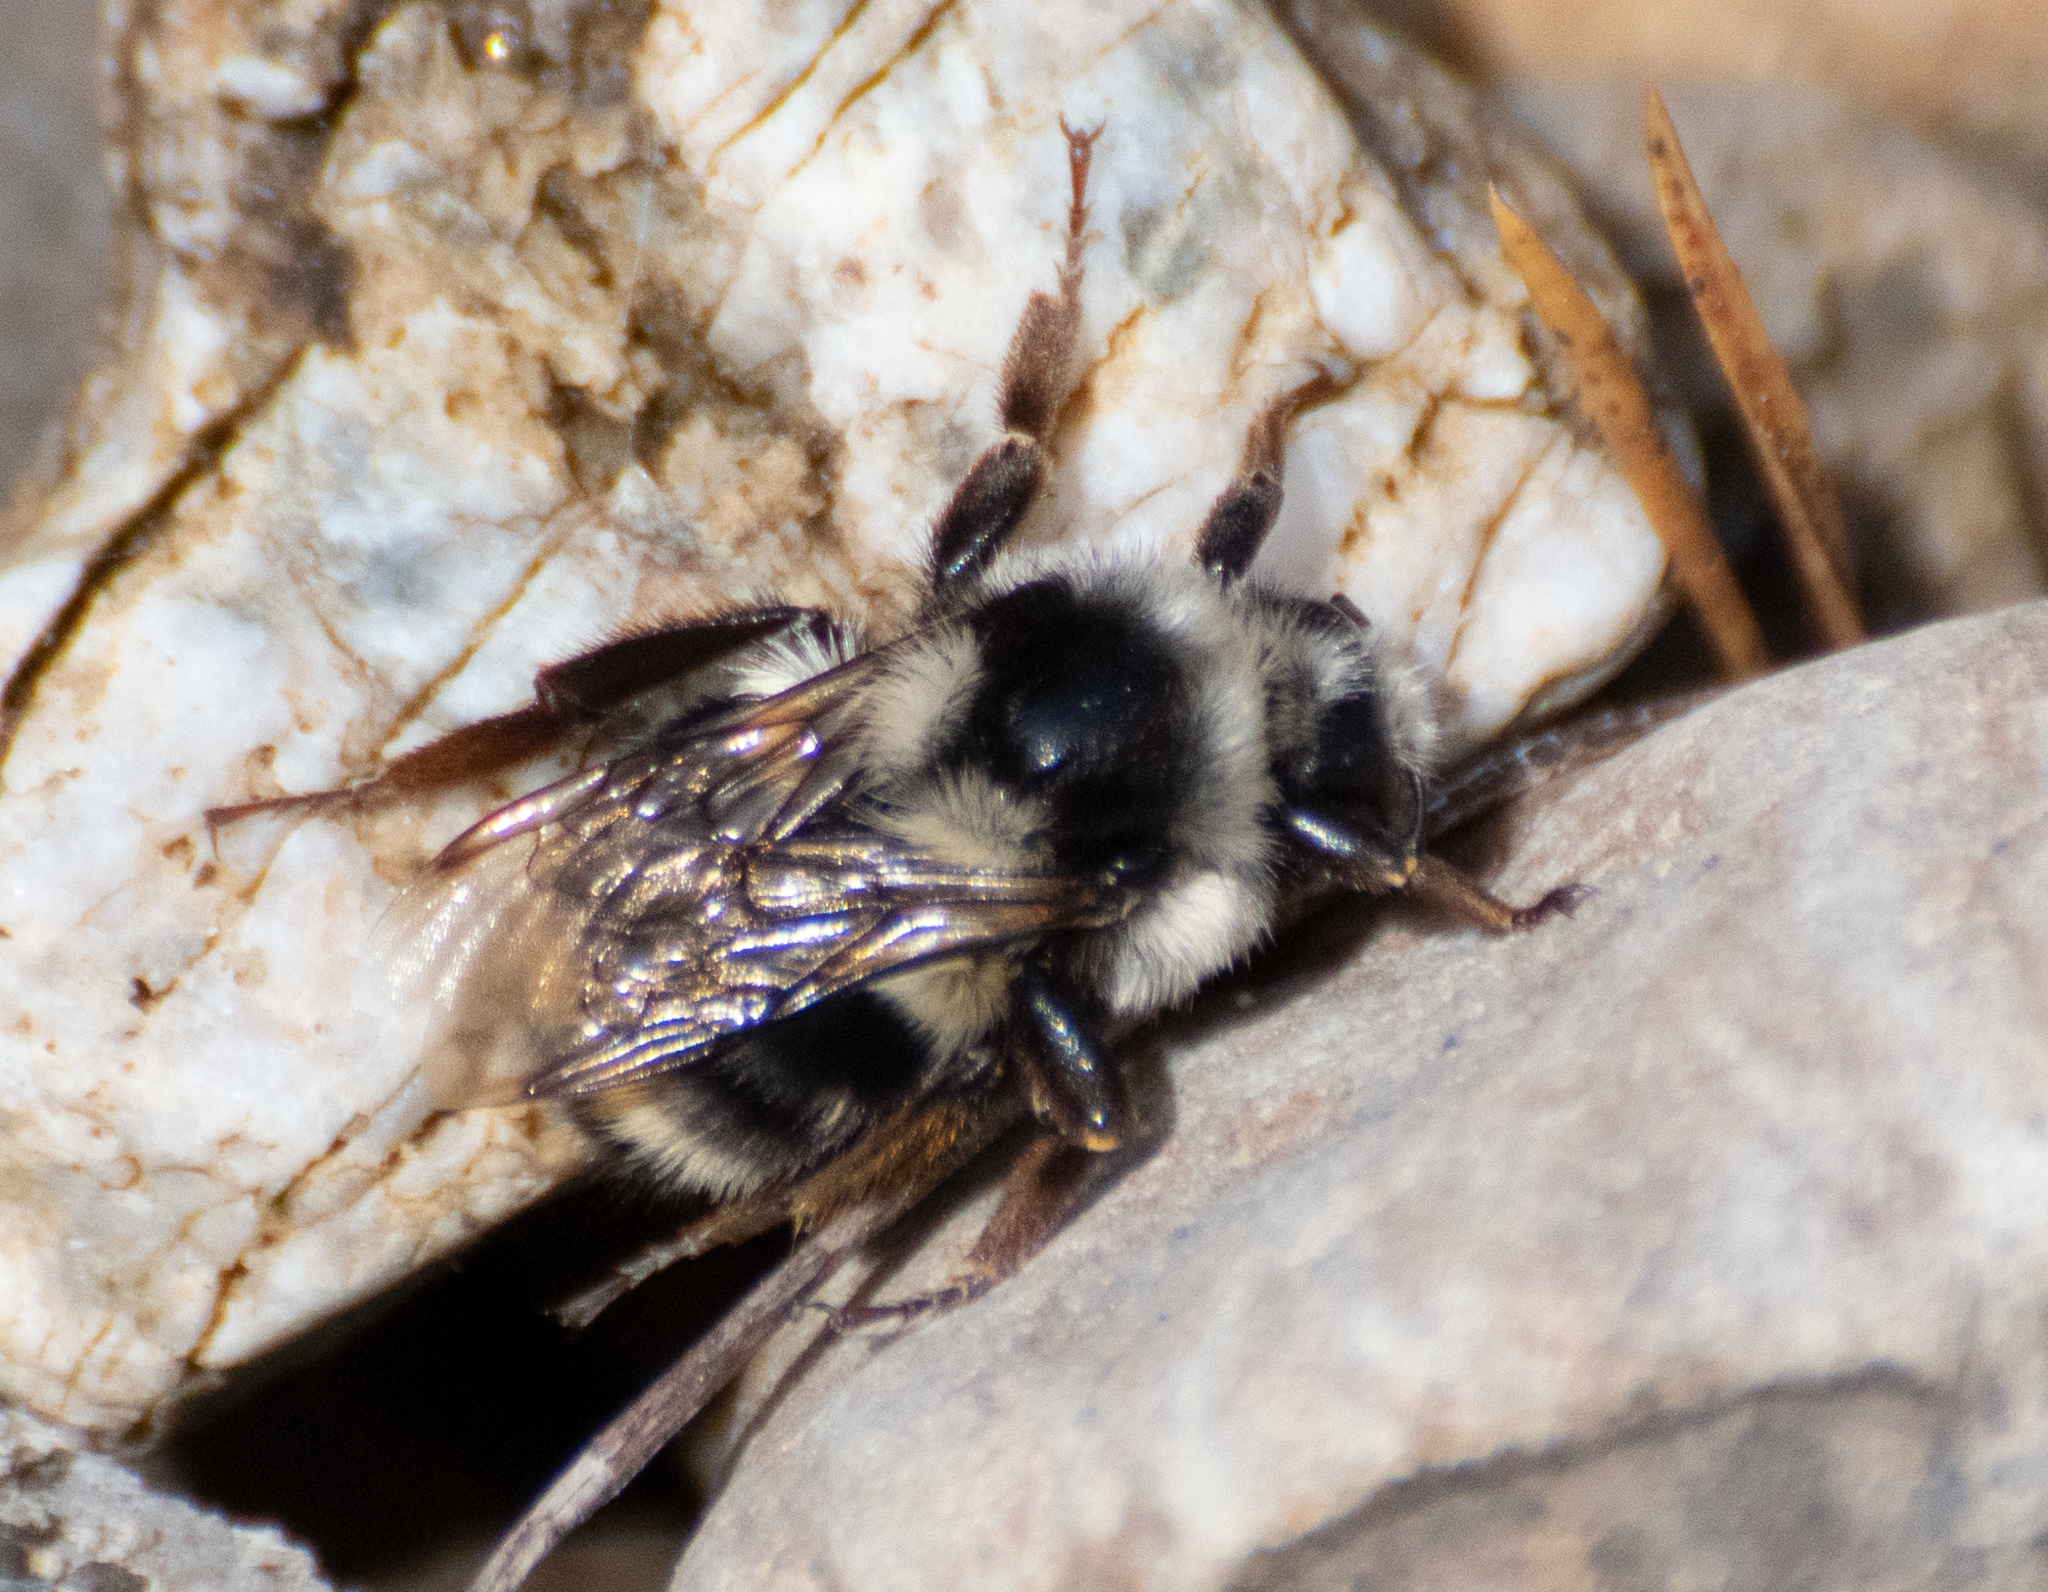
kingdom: Animalia
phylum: Arthropoda
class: Insecta
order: Hymenoptera
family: Apidae
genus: Bombus
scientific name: Bombus vancouverensis
